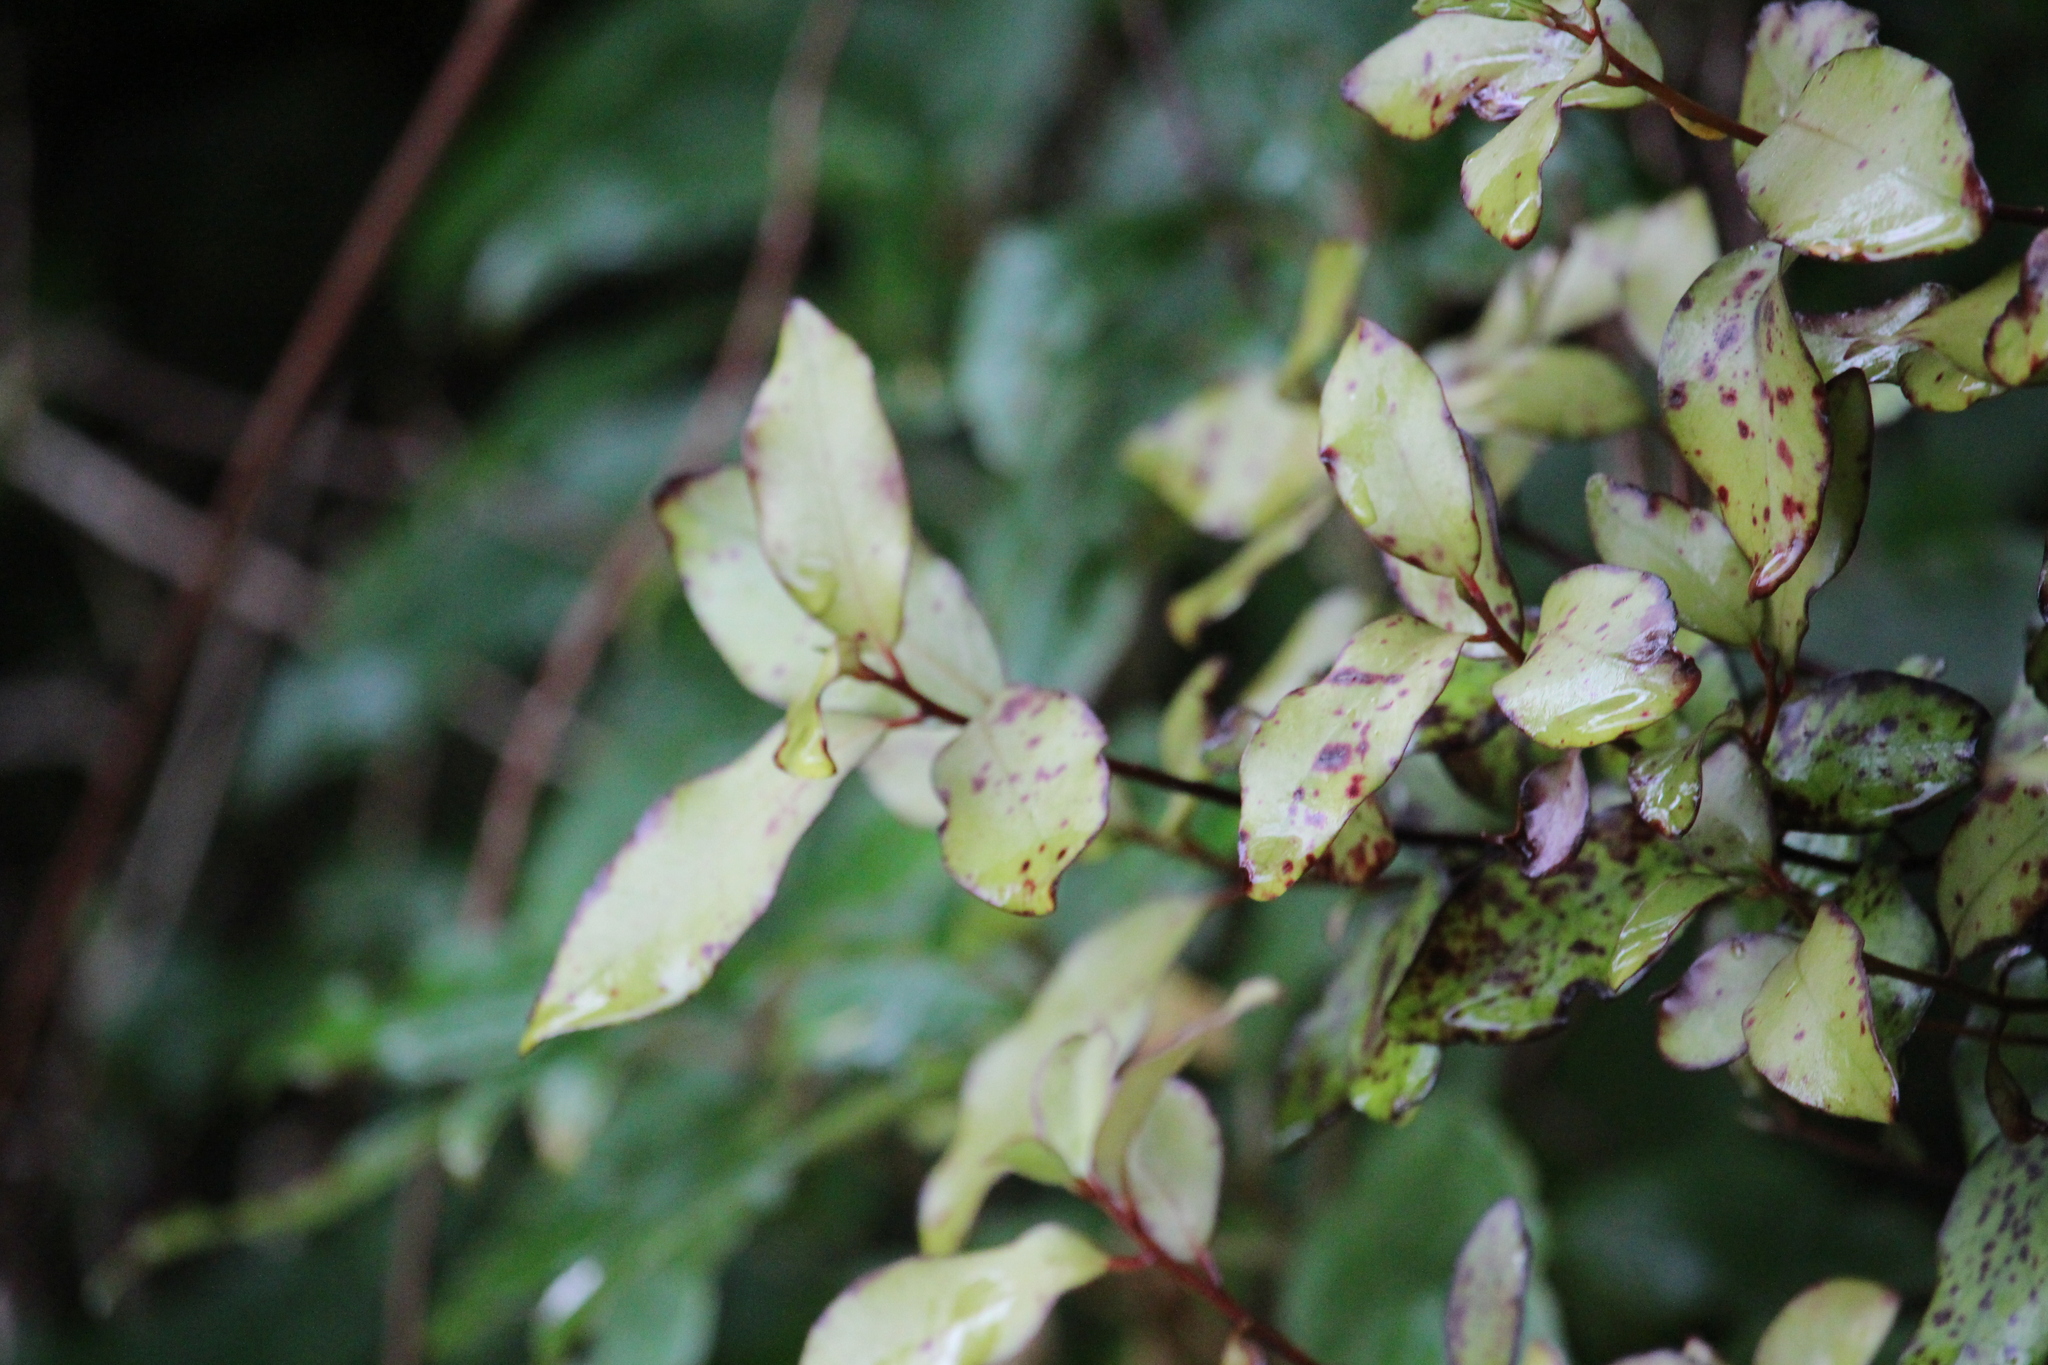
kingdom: Plantae
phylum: Tracheophyta
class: Magnoliopsida
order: Canellales
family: Winteraceae
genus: Pseudowintera
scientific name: Pseudowintera colorata
